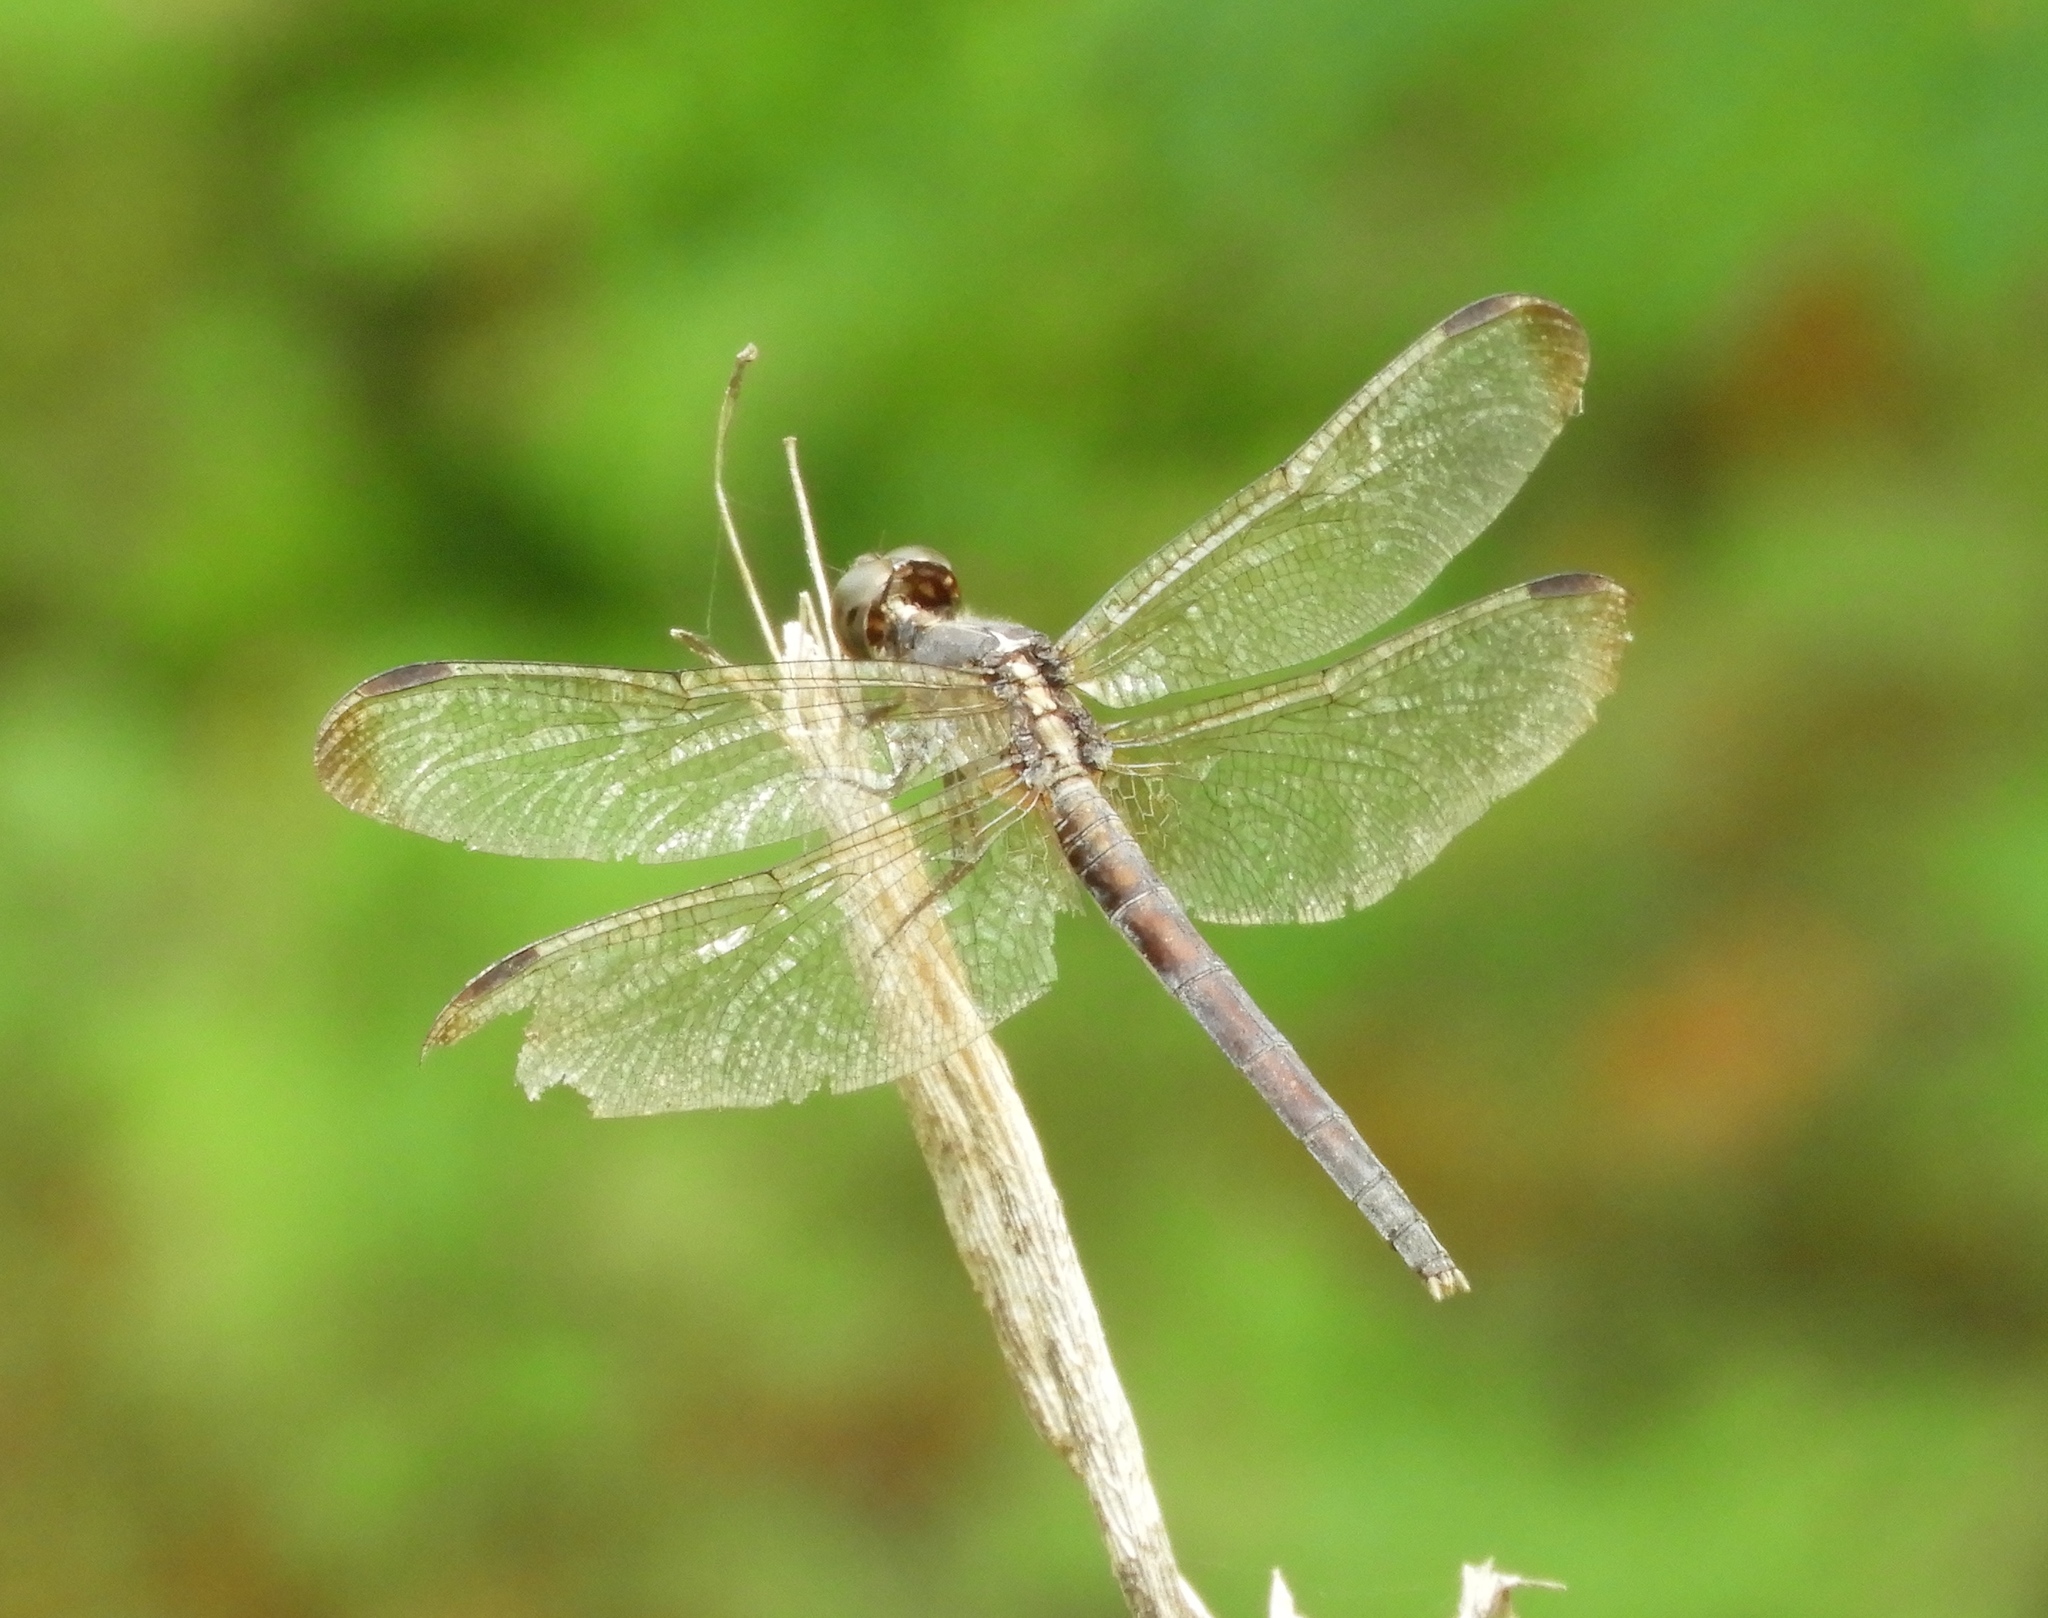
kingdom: Animalia
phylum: Arthropoda
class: Insecta
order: Odonata
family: Libellulidae
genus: Erythrodiplax
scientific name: Erythrodiplax funerea
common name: Black-winged dragonlet
